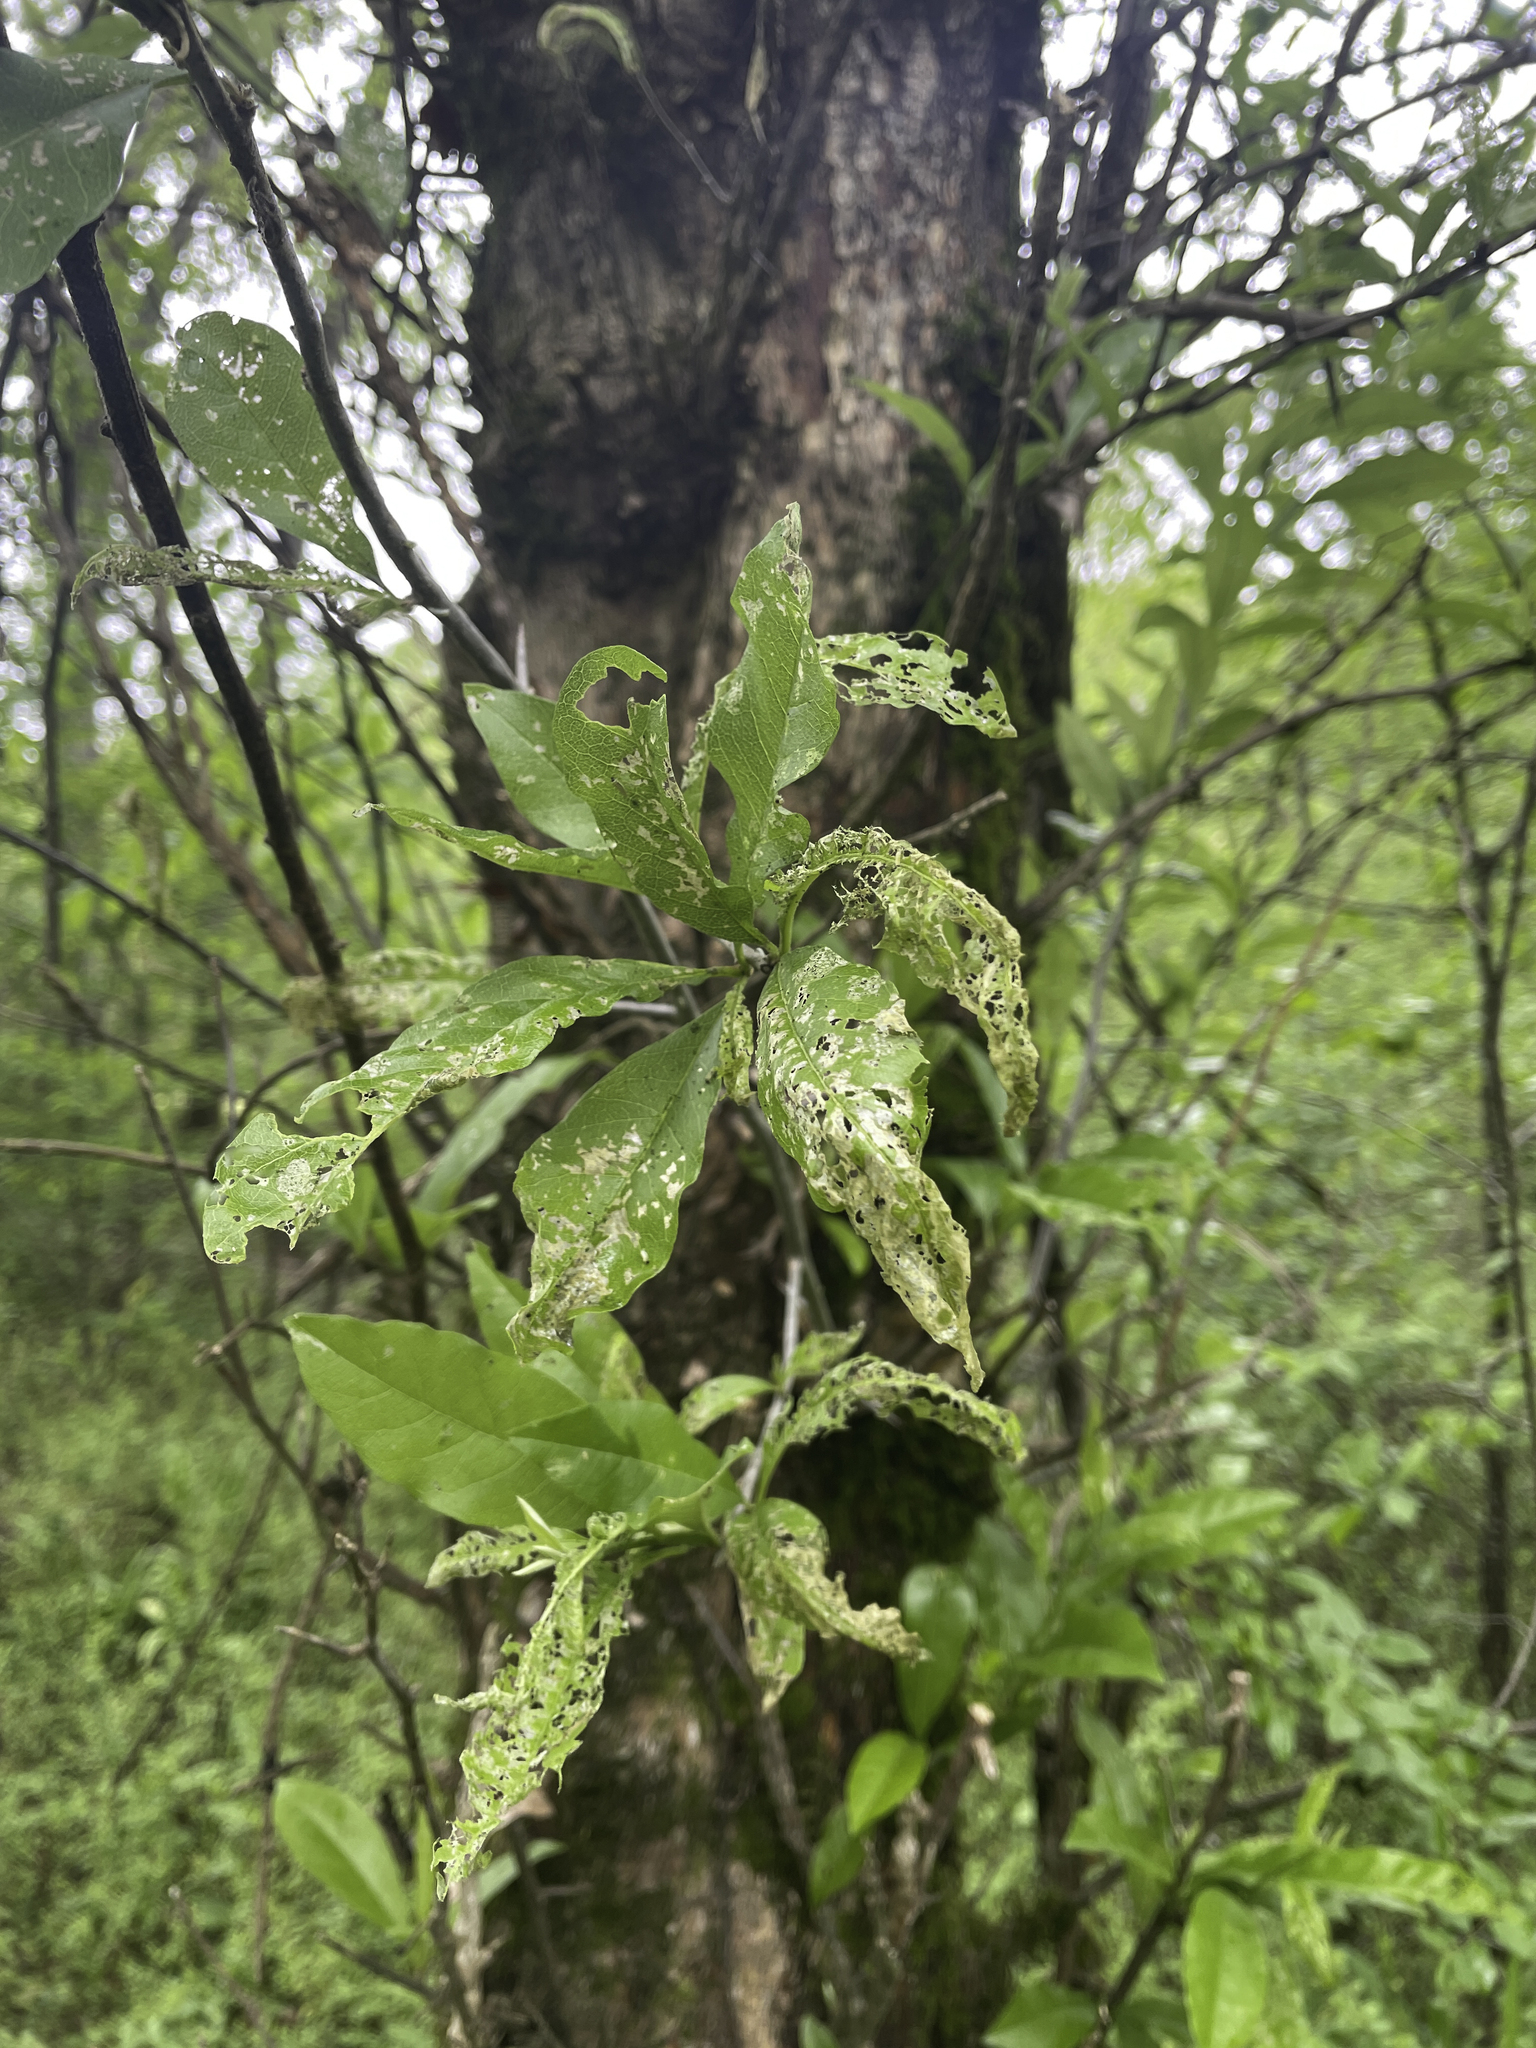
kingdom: Animalia
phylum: Arthropoda
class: Insecta
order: Lepidoptera
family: Lacturidae
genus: Lactura
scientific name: Lactura
